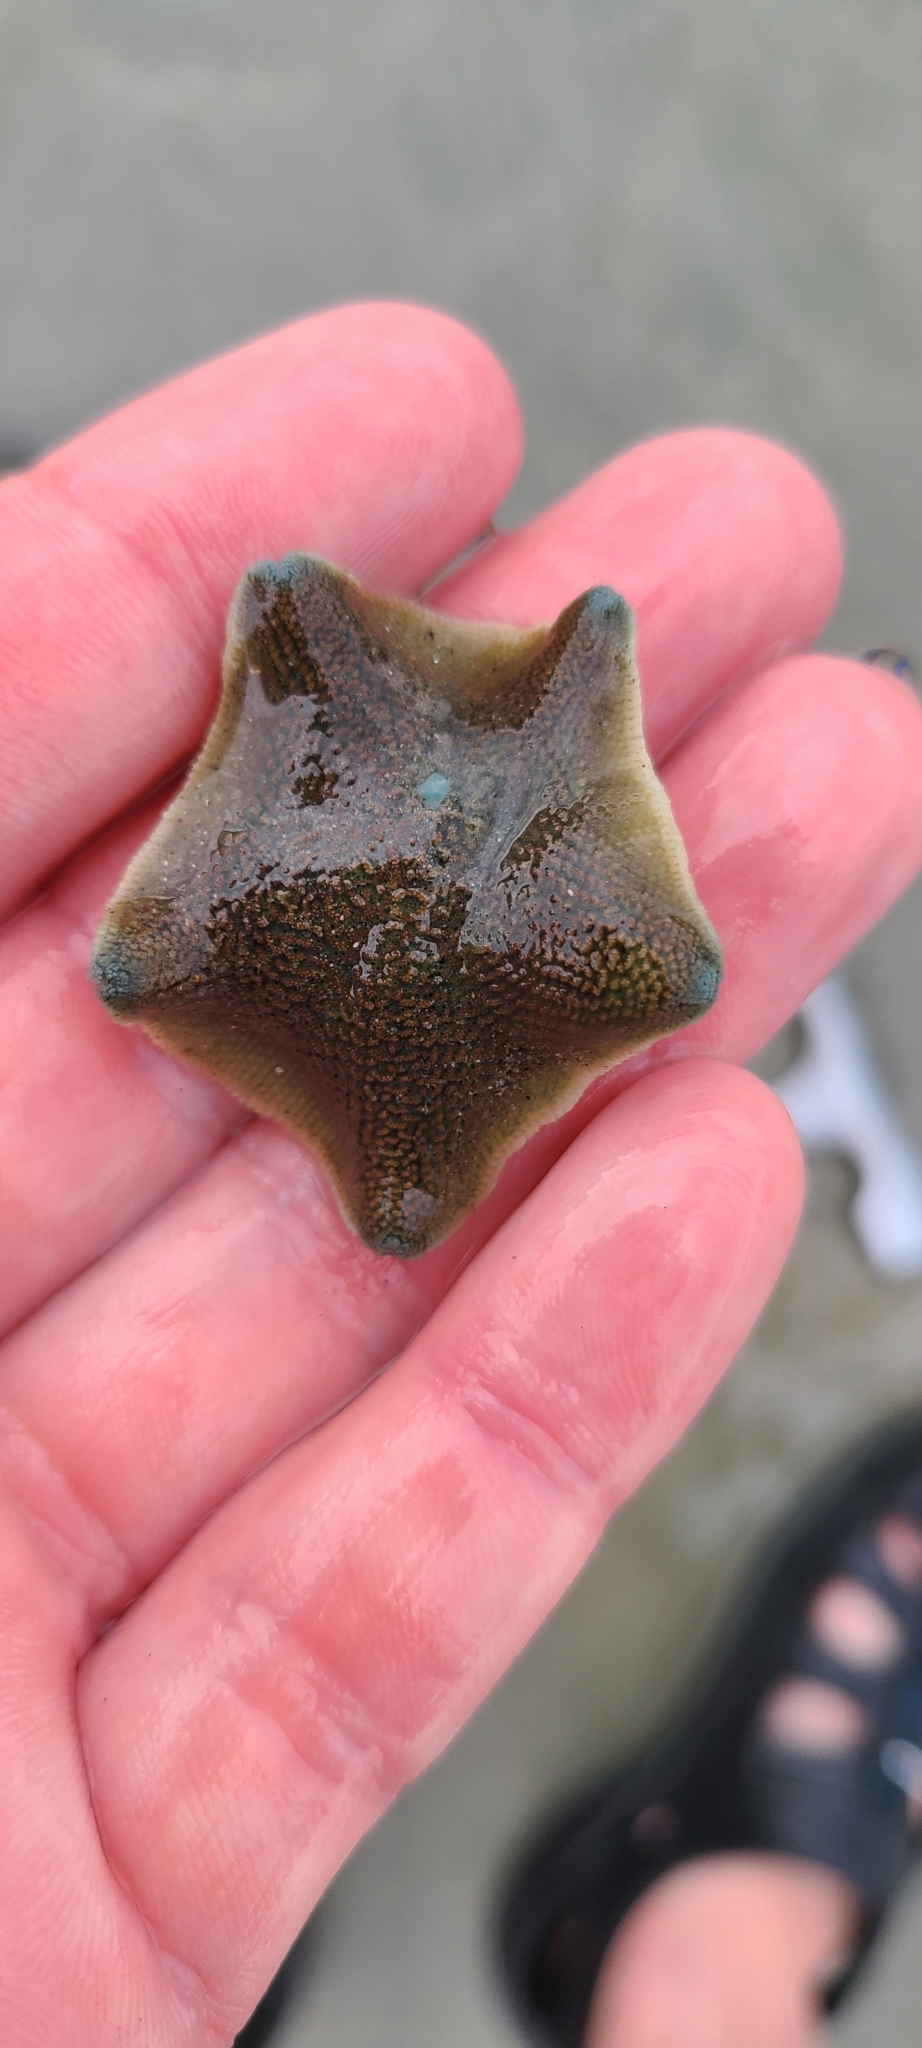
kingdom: Animalia
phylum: Echinodermata
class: Asteroidea
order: Valvatida
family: Asterinidae
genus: Patiriella
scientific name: Patiriella regularis
